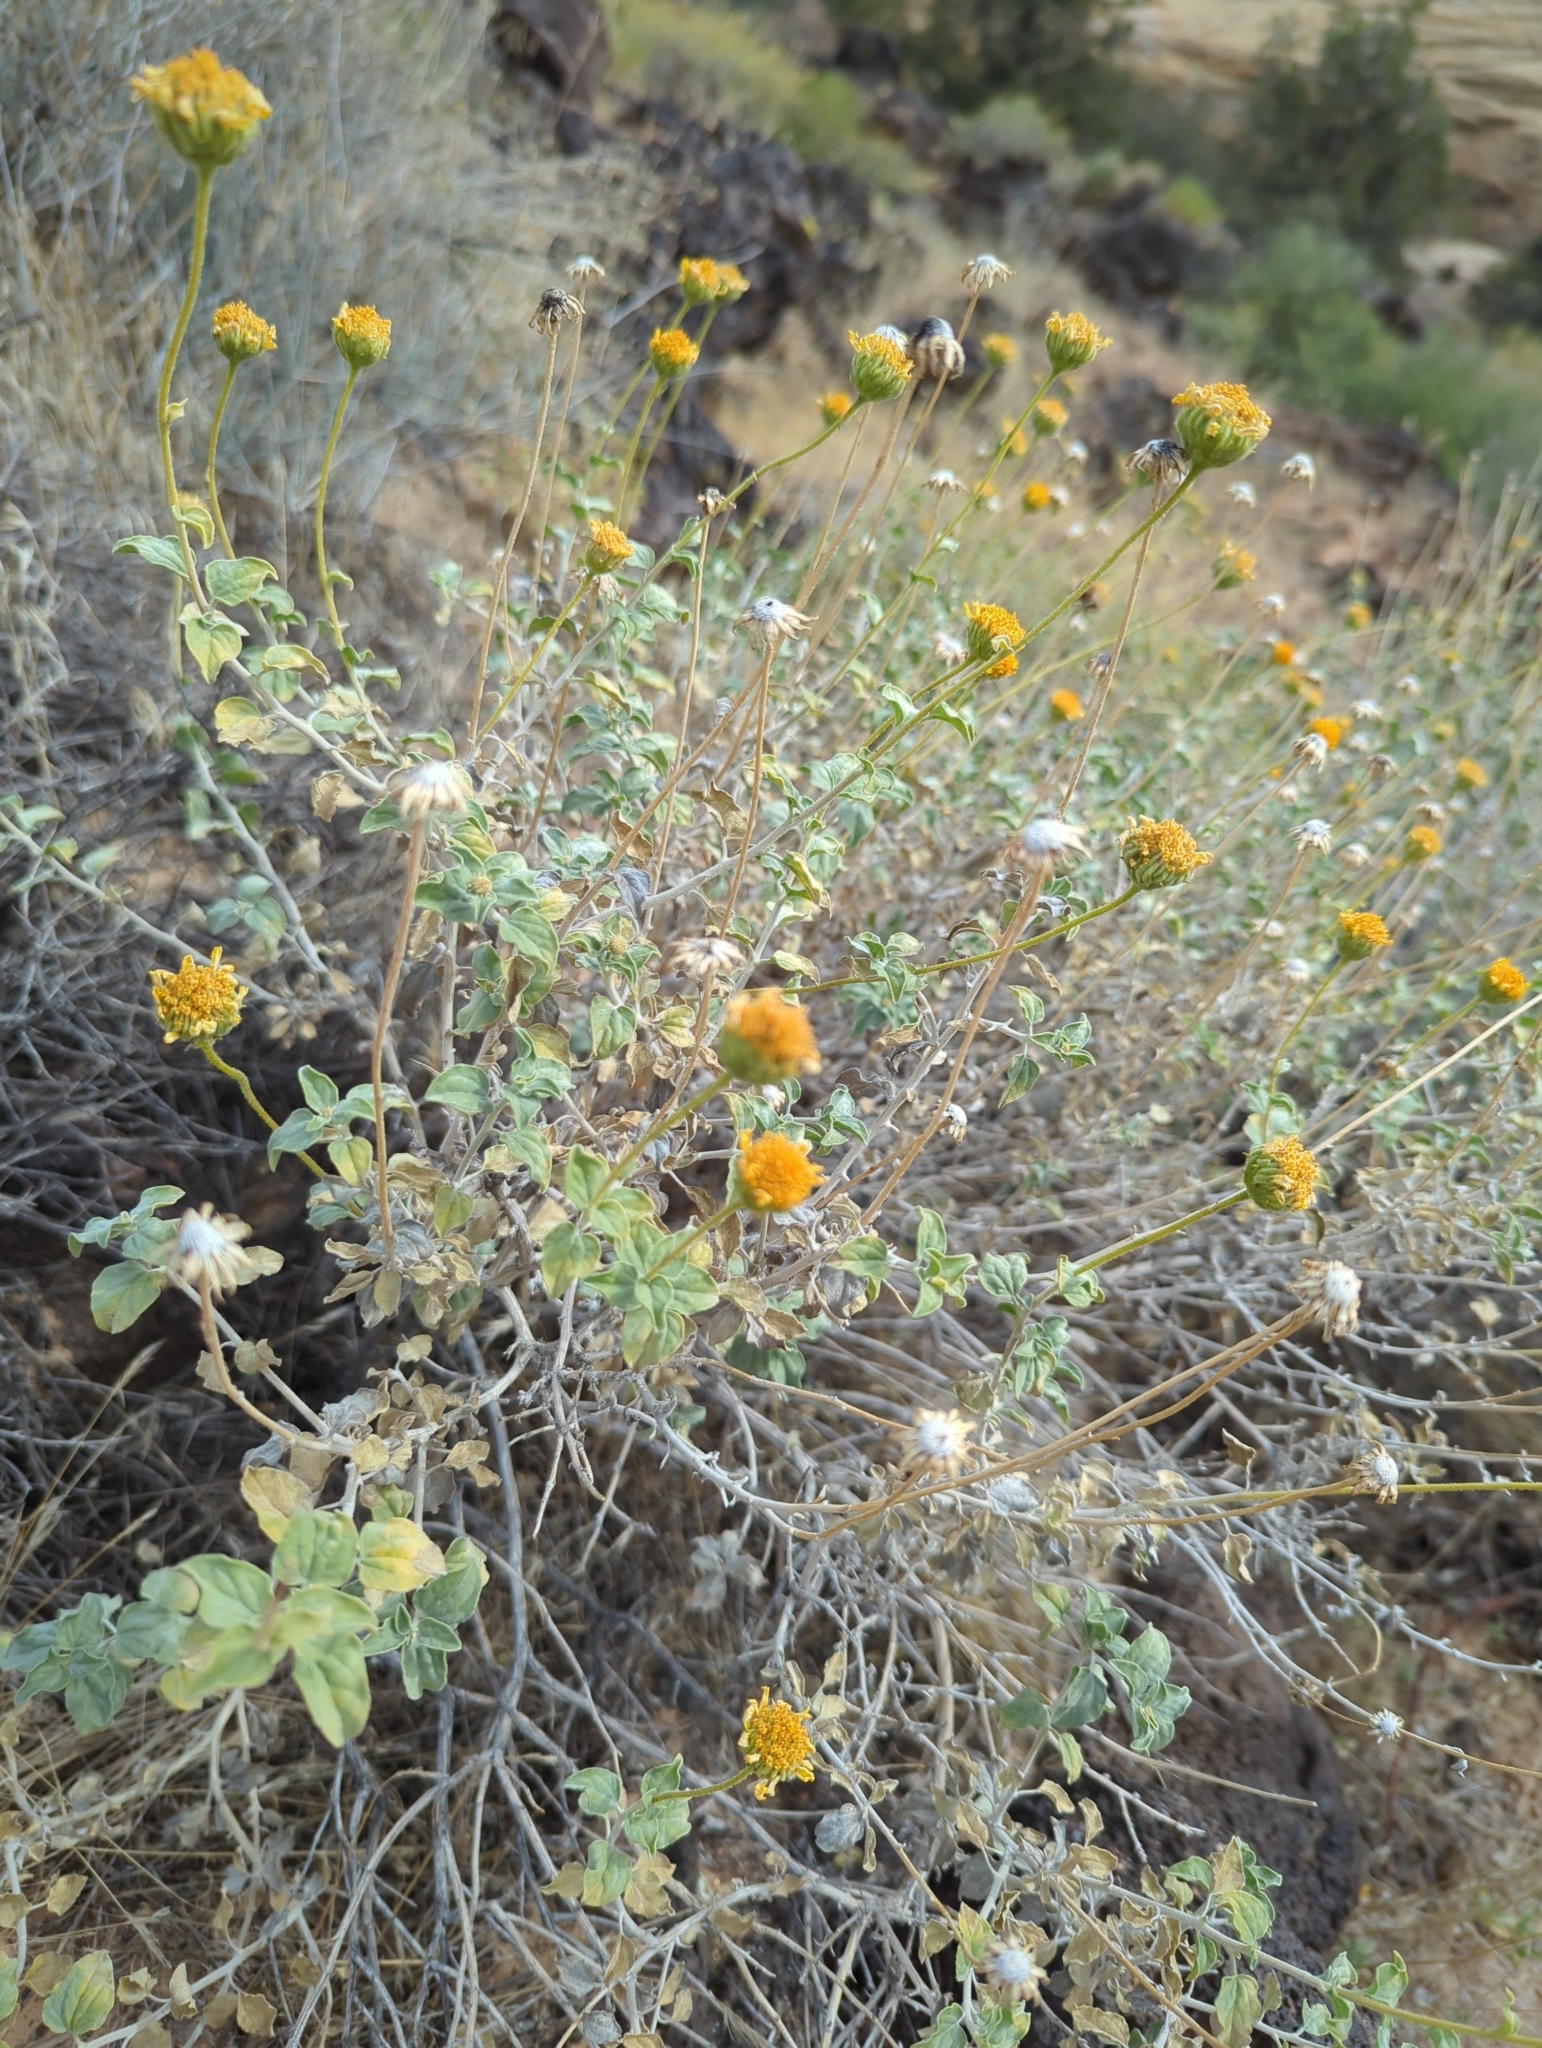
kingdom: Plantae
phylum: Tracheophyta
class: Magnoliopsida
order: Asterales
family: Asteraceae
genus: Encelia
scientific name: Encelia virginensis
